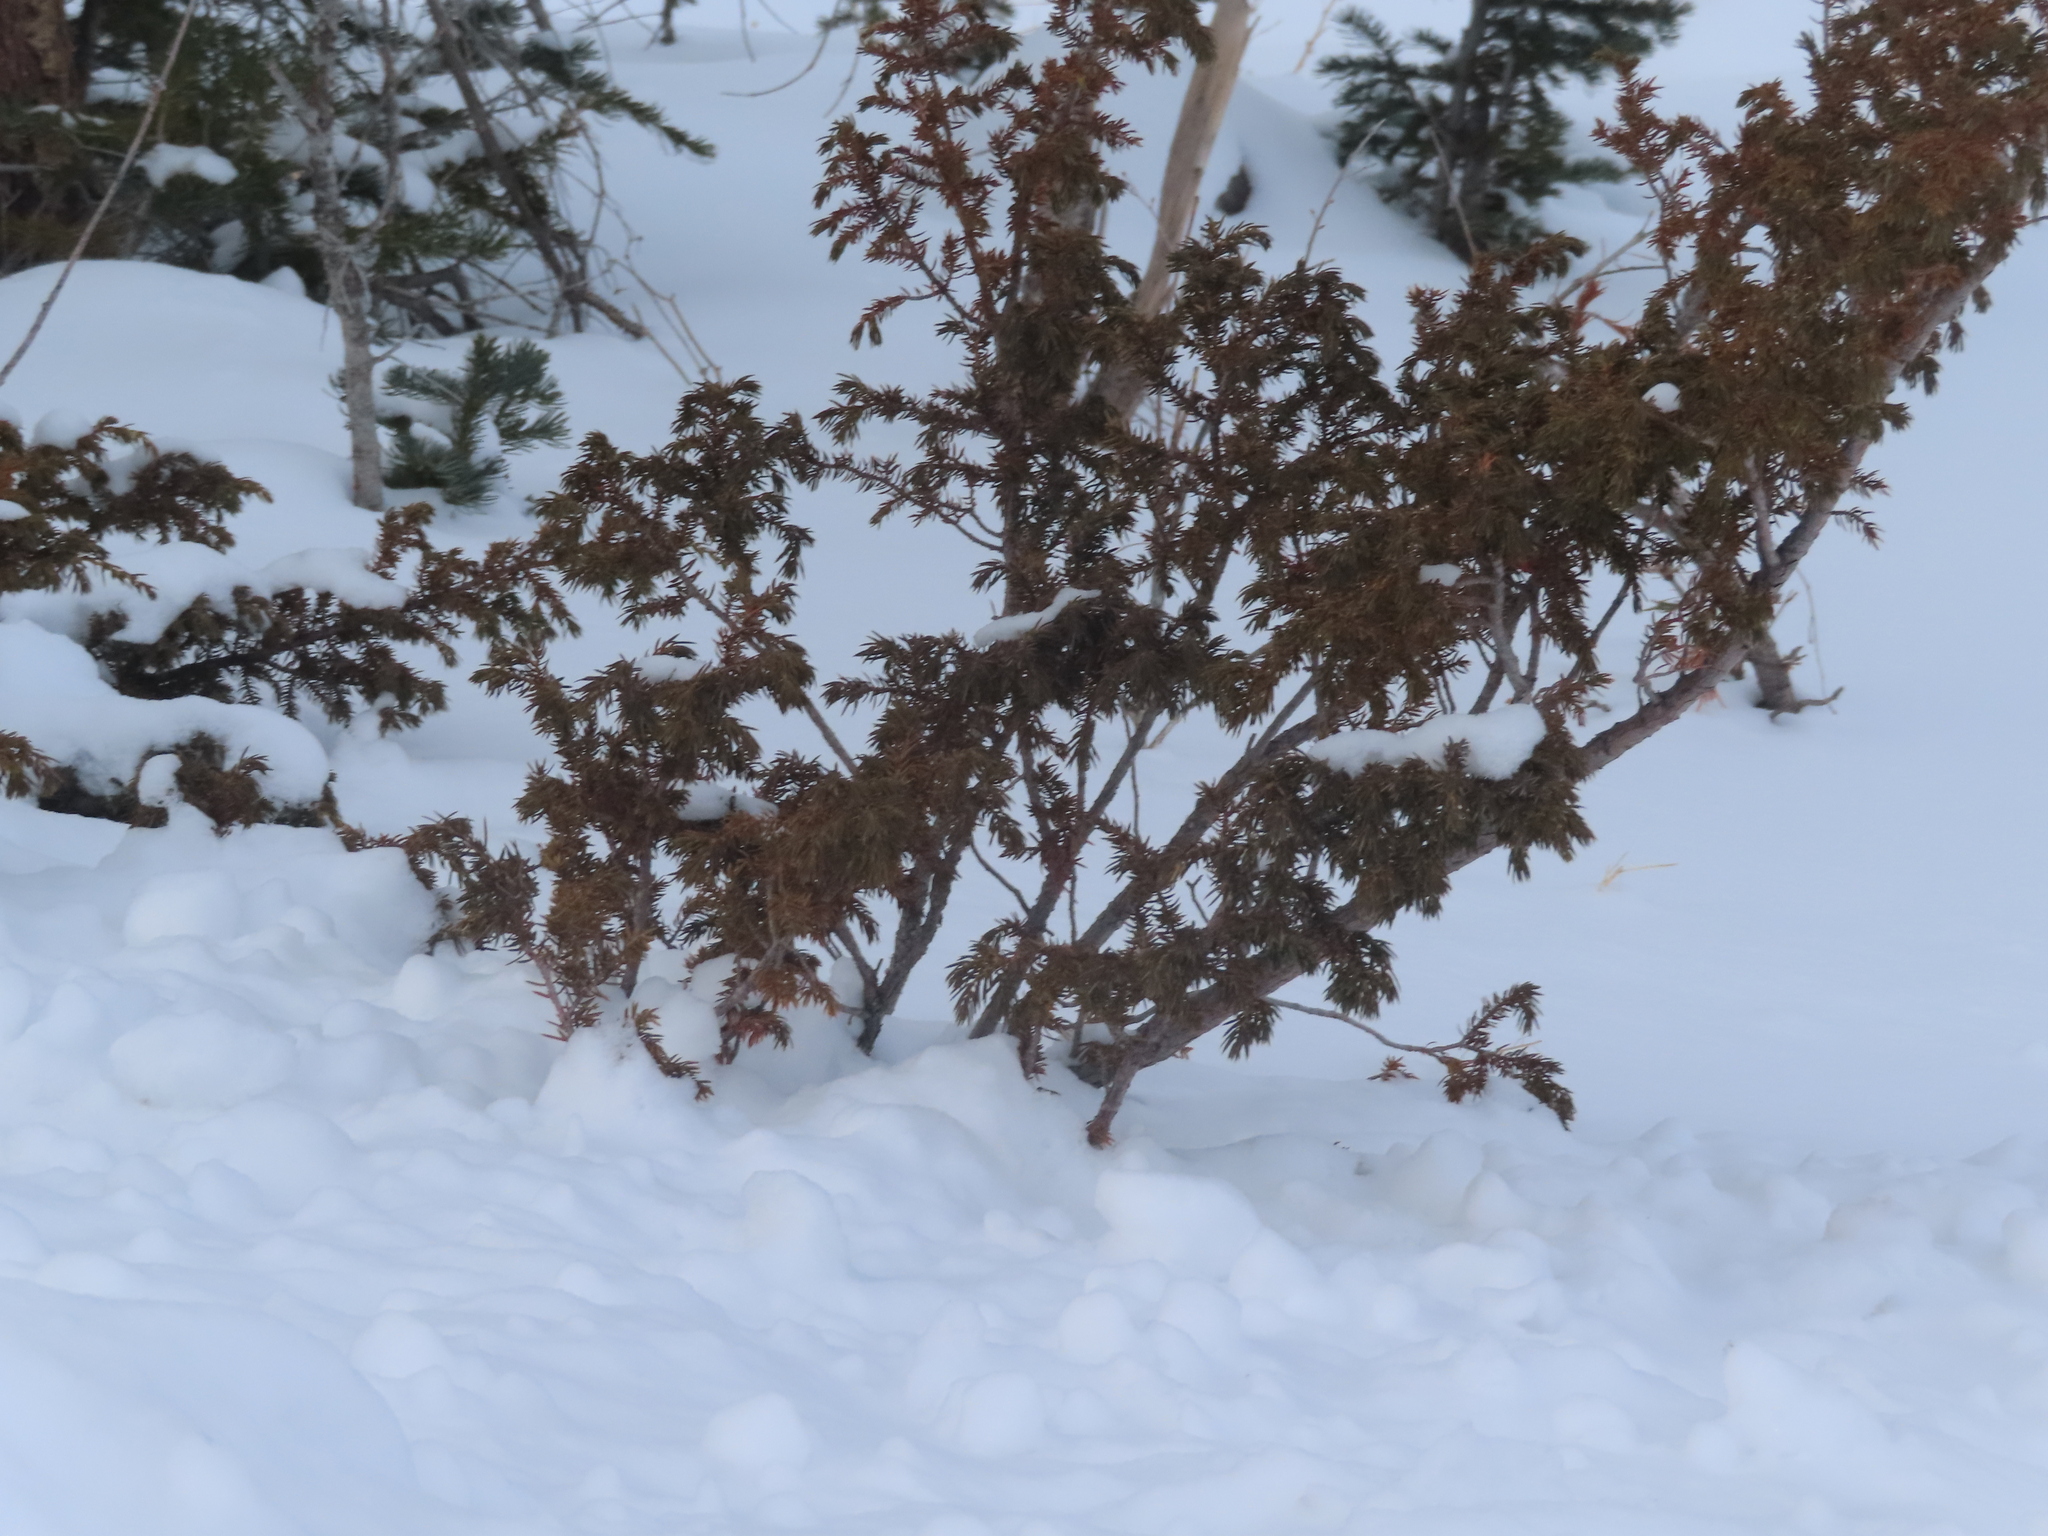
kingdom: Plantae
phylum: Tracheophyta
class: Pinopsida
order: Pinales
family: Cupressaceae
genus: Juniperus
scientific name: Juniperus communis
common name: Common juniper
